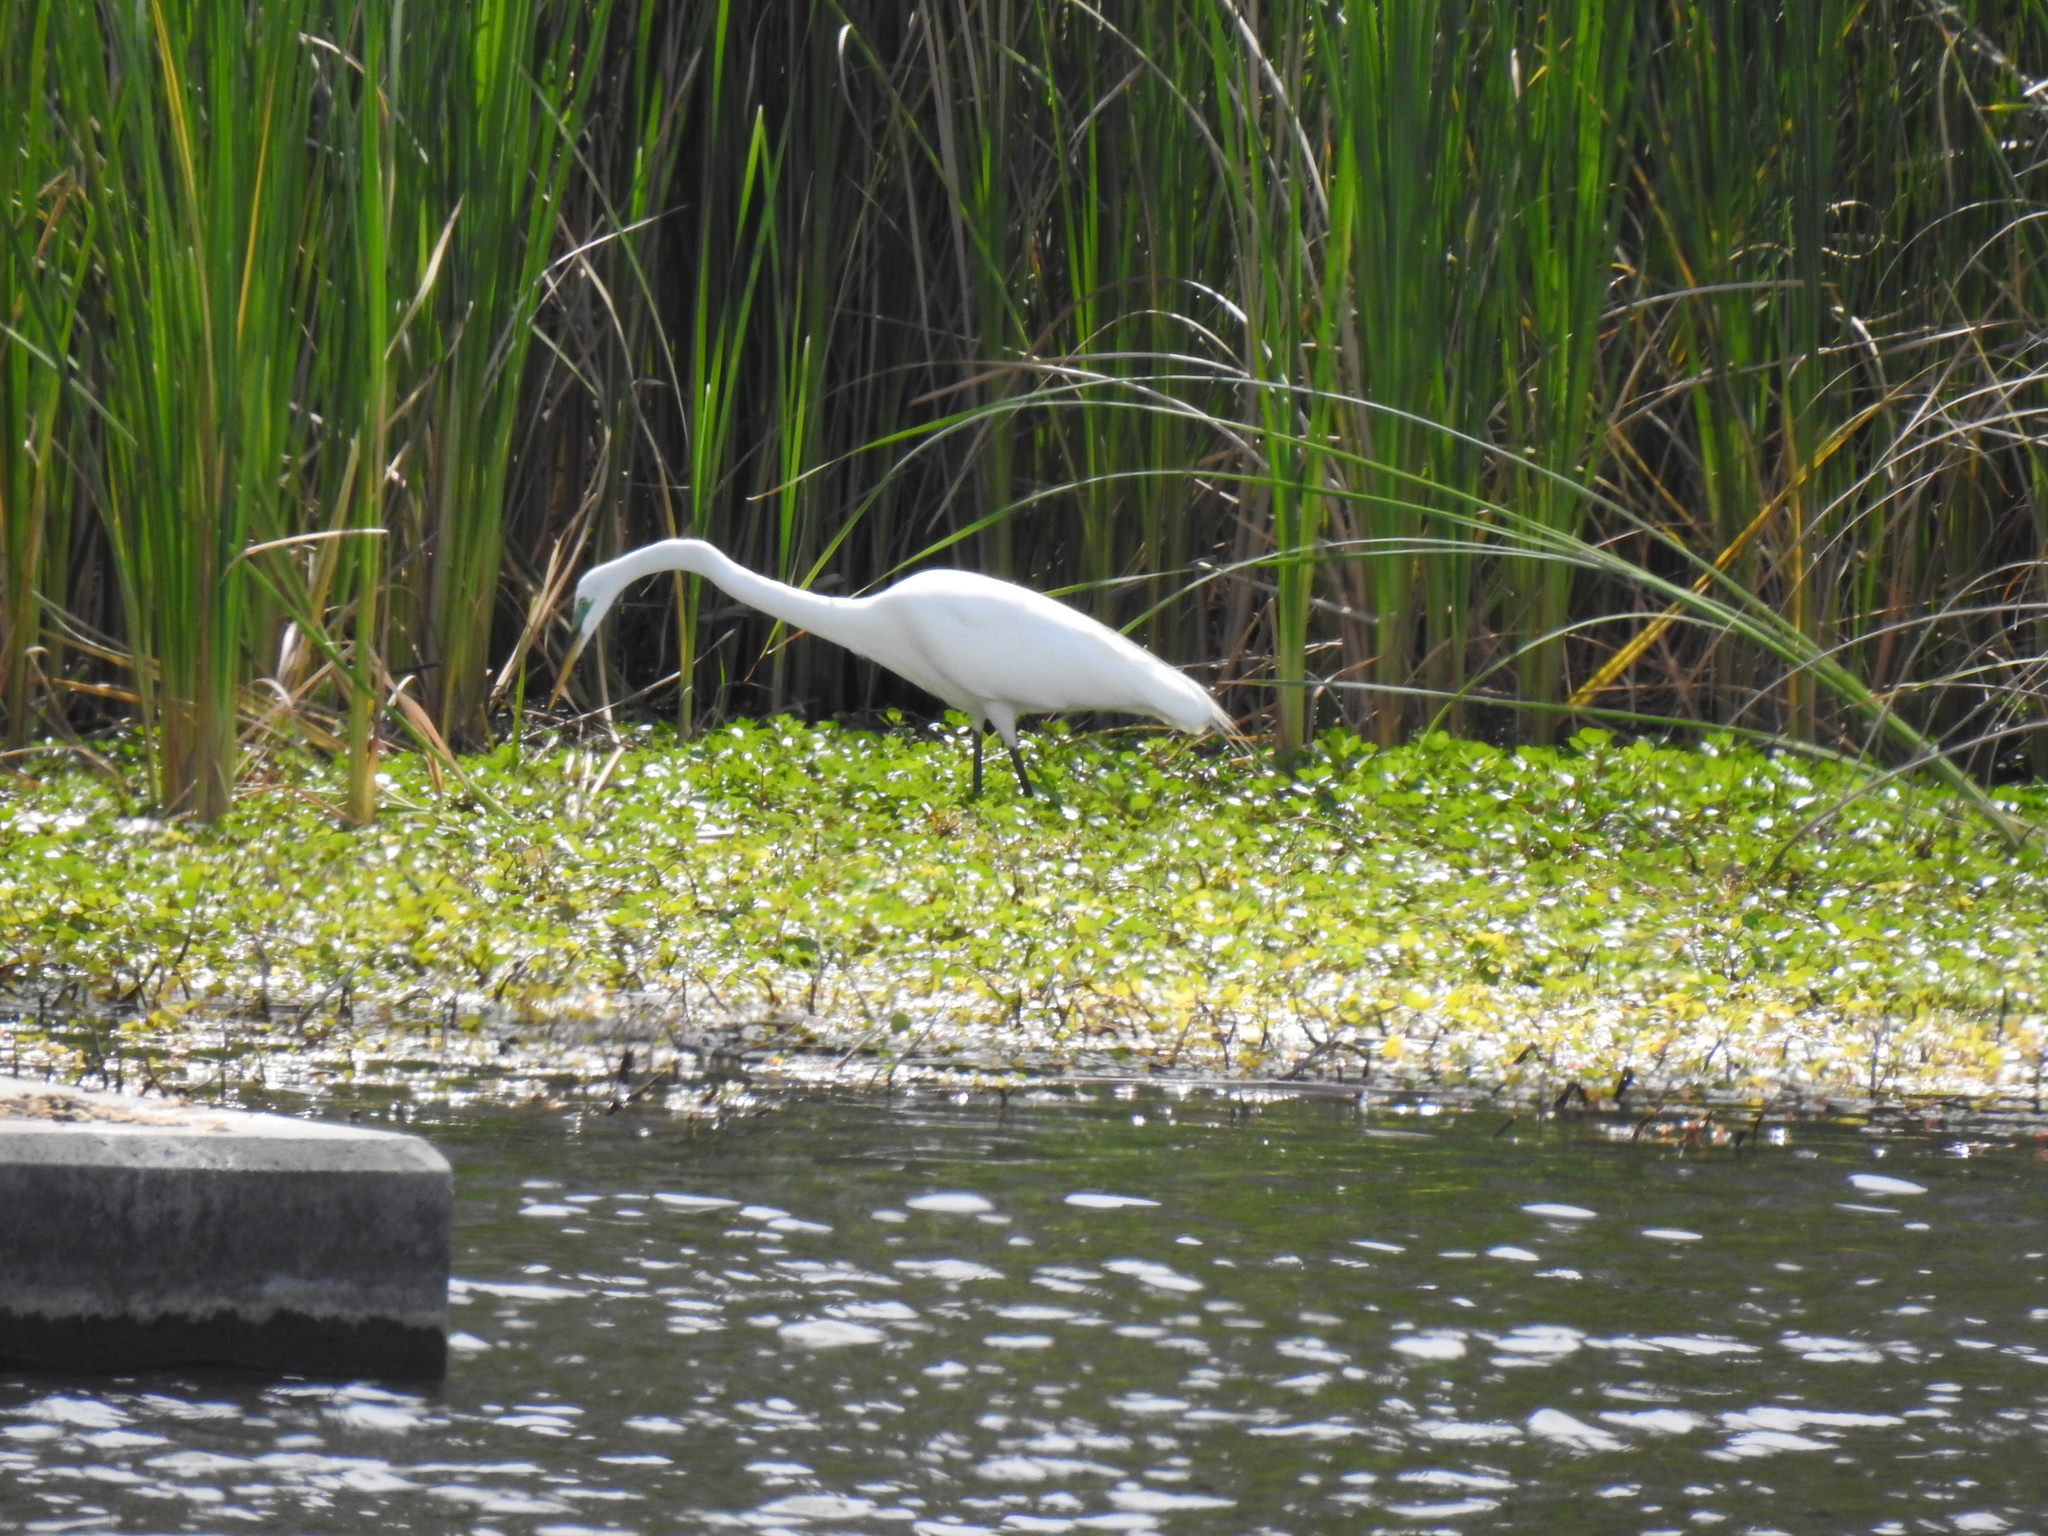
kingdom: Animalia
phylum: Chordata
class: Aves
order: Pelecaniformes
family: Ardeidae
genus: Ardea
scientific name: Ardea alba
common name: Great egret
